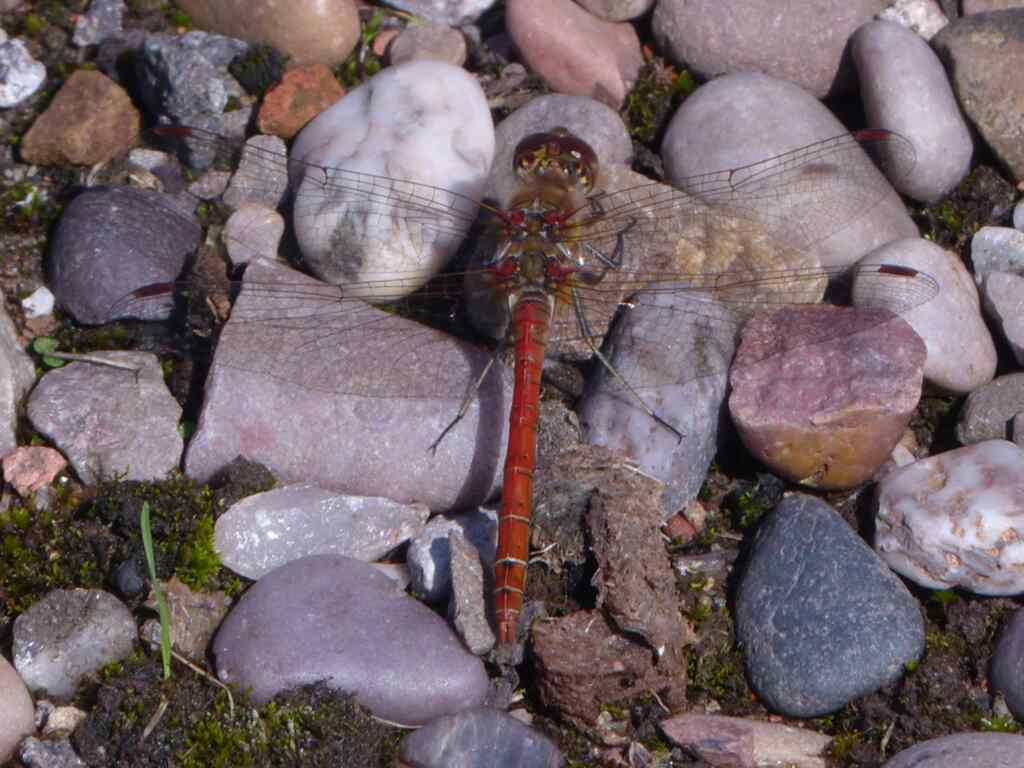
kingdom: Animalia
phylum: Arthropoda
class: Insecta
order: Odonata
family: Libellulidae
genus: Sympetrum
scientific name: Sympetrum striolatum
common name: Common darter
